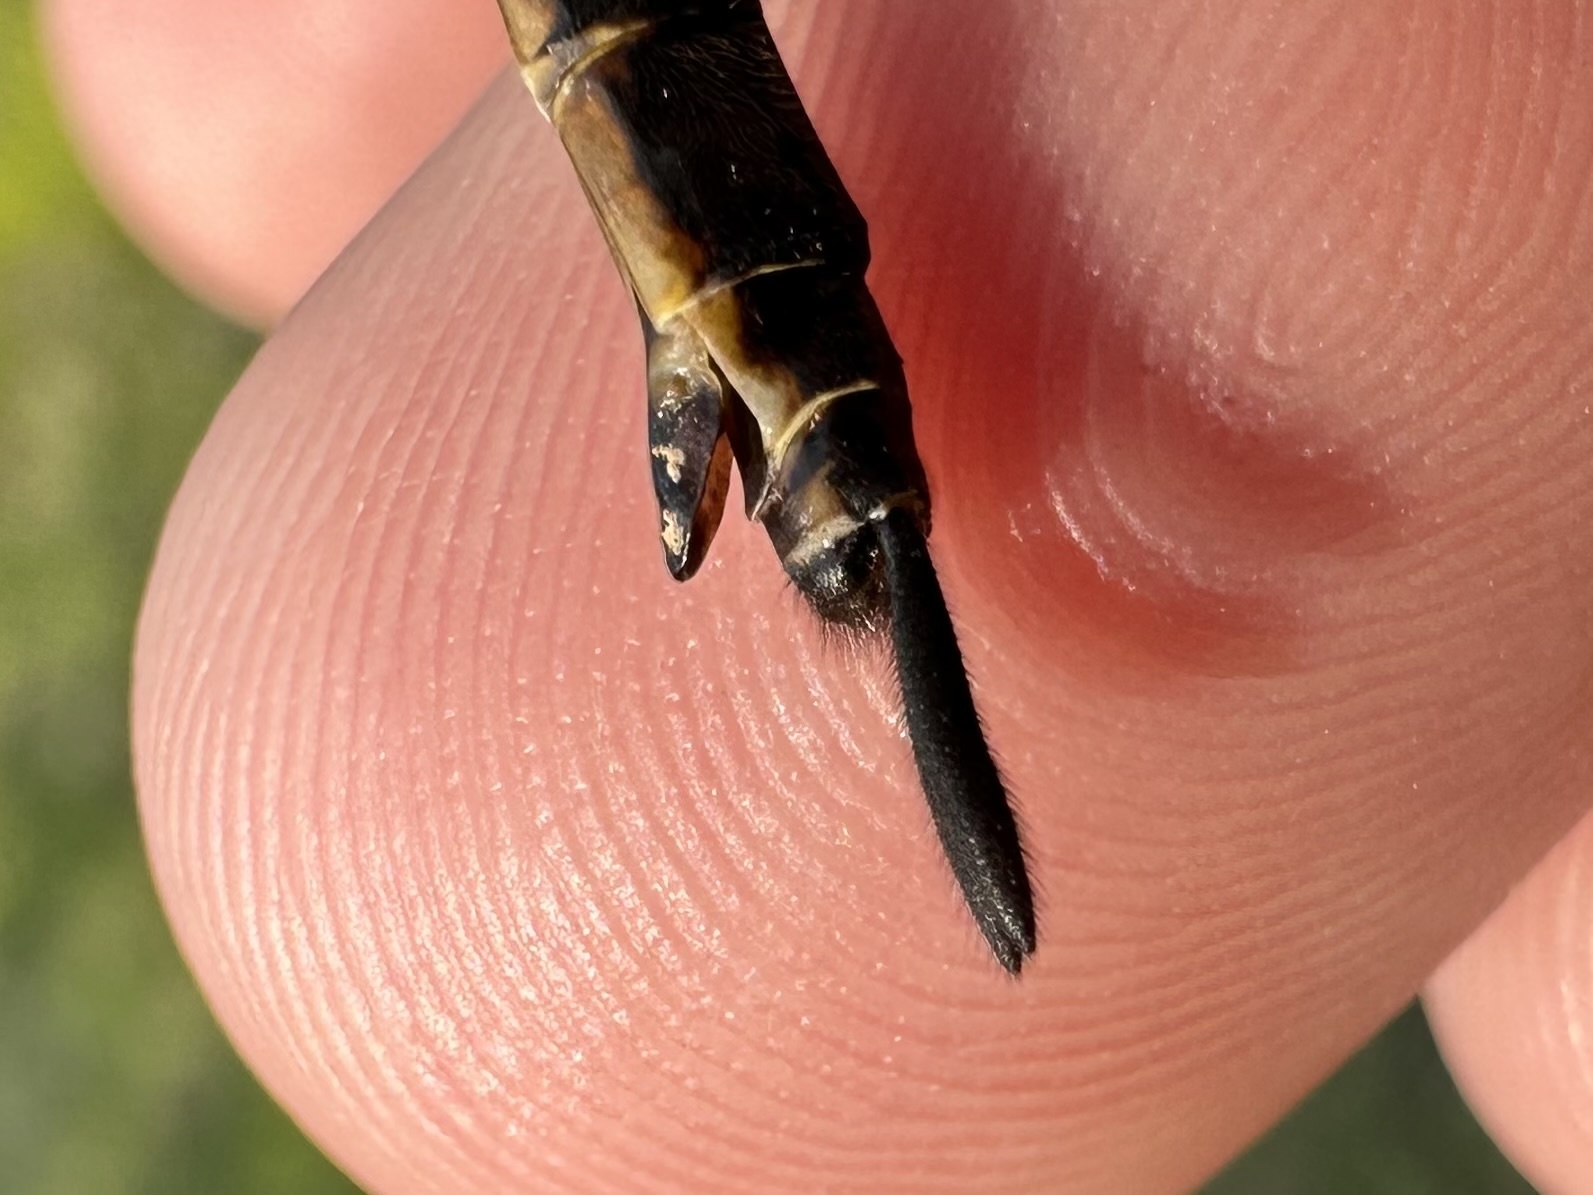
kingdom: Animalia
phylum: Arthropoda
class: Insecta
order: Odonata
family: Corduliidae
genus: Somatochlora
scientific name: Somatochlora walshii
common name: Brush-tipped emerald
